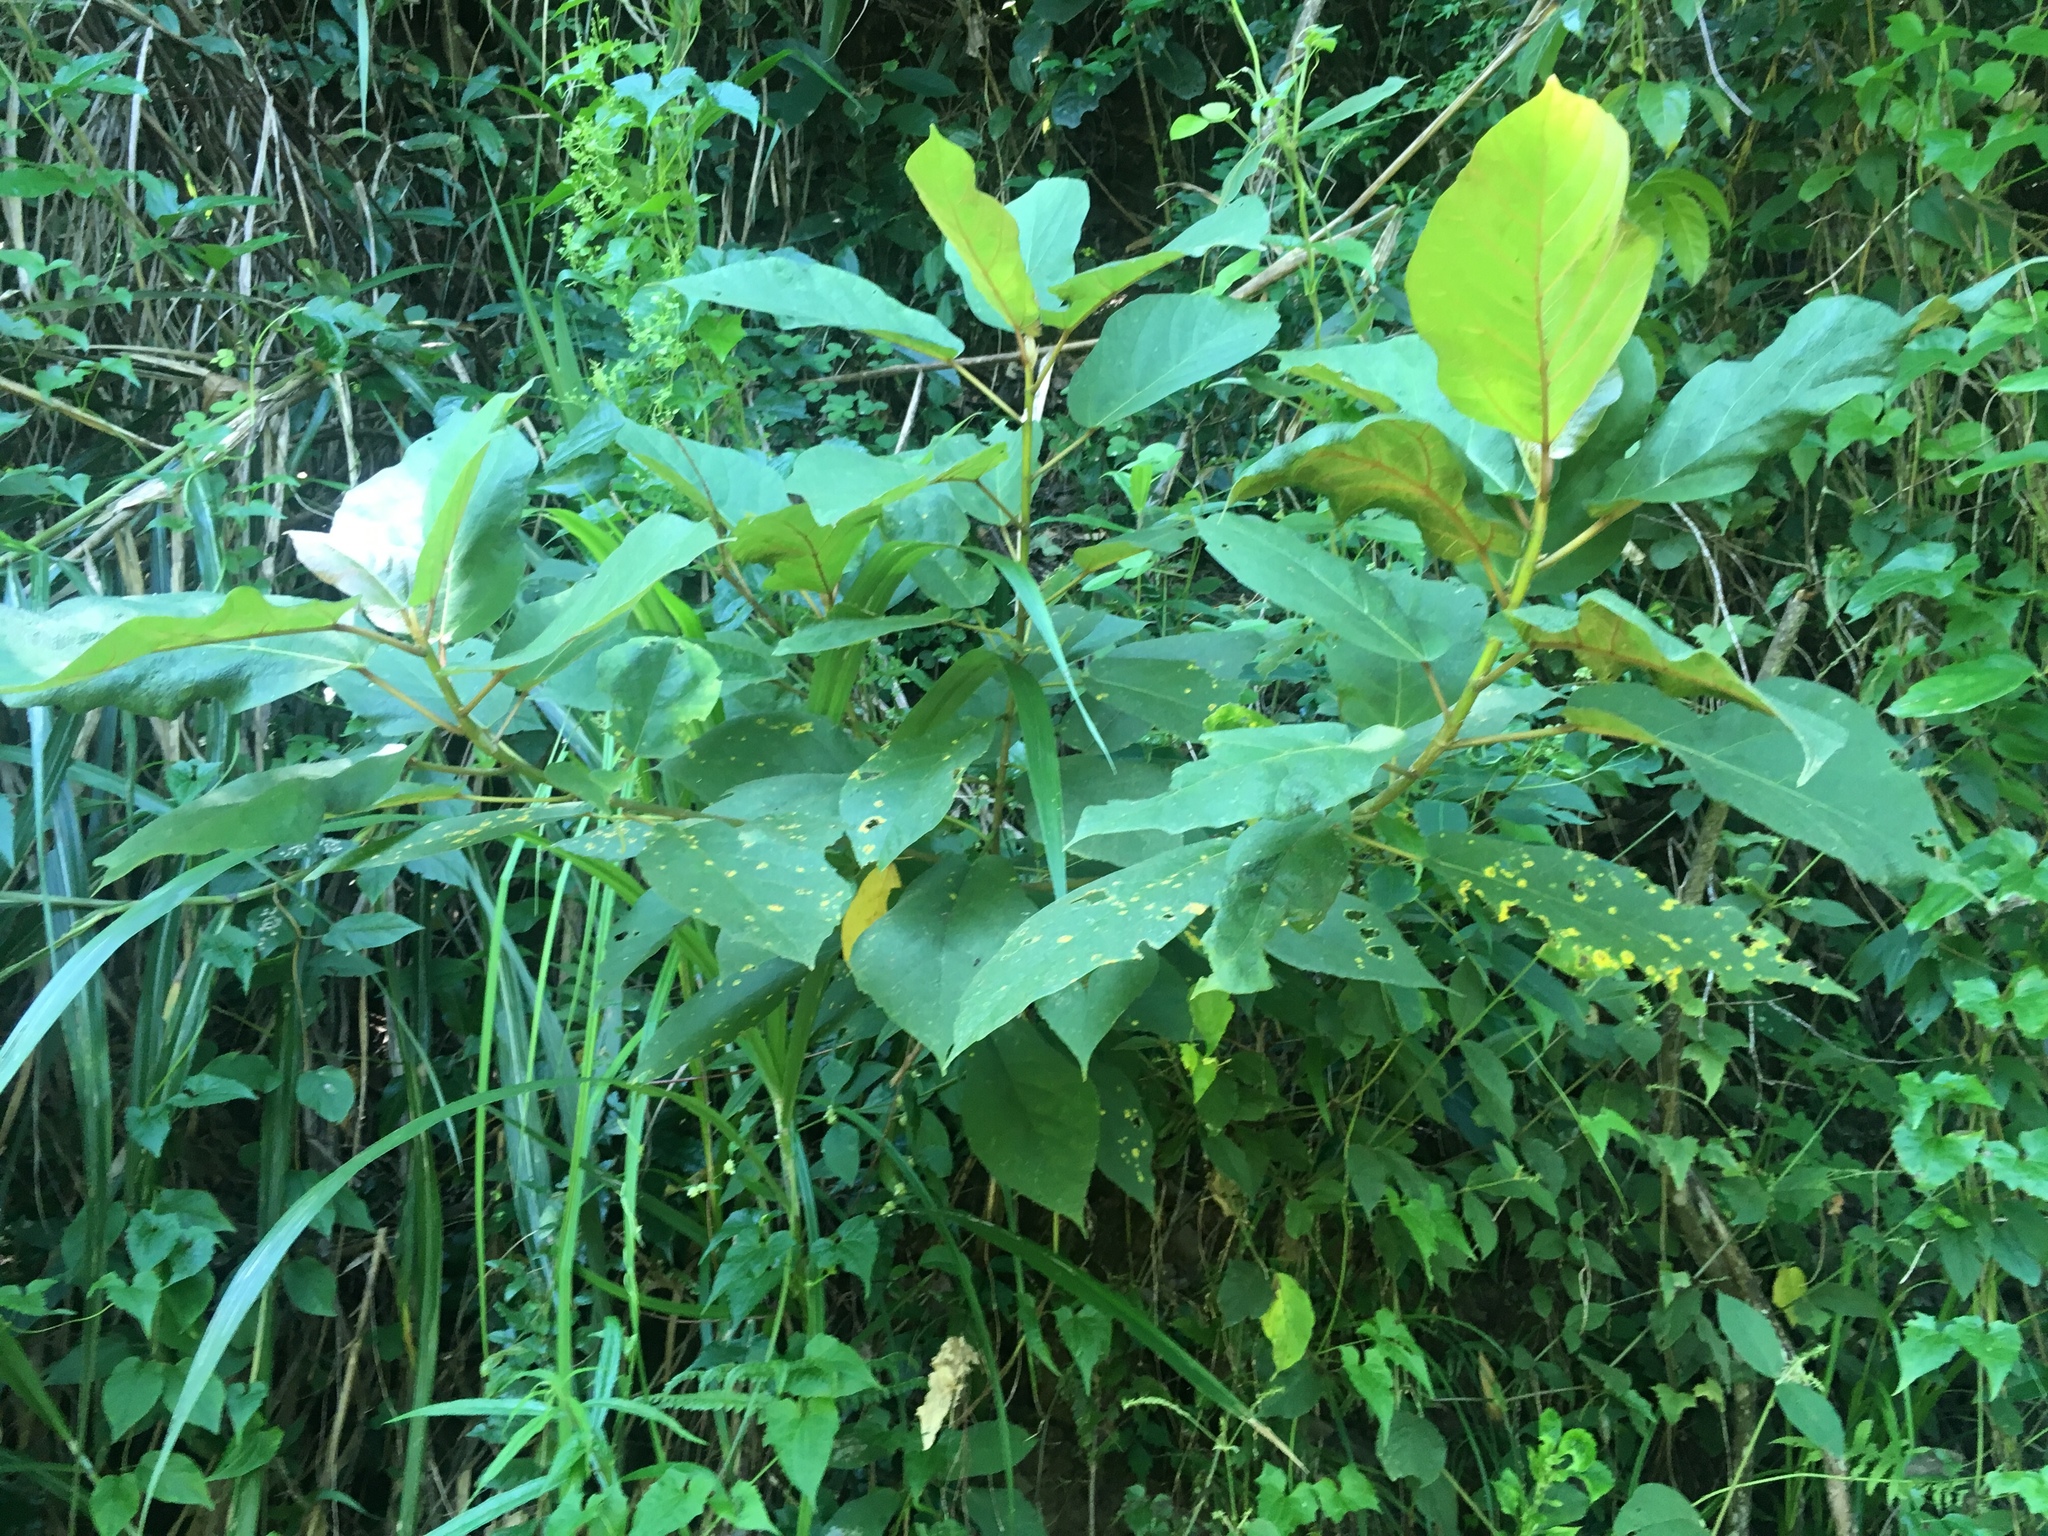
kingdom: Plantae
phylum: Tracheophyta
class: Magnoliopsida
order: Rosales
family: Moraceae
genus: Ficus
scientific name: Ficus erecta
